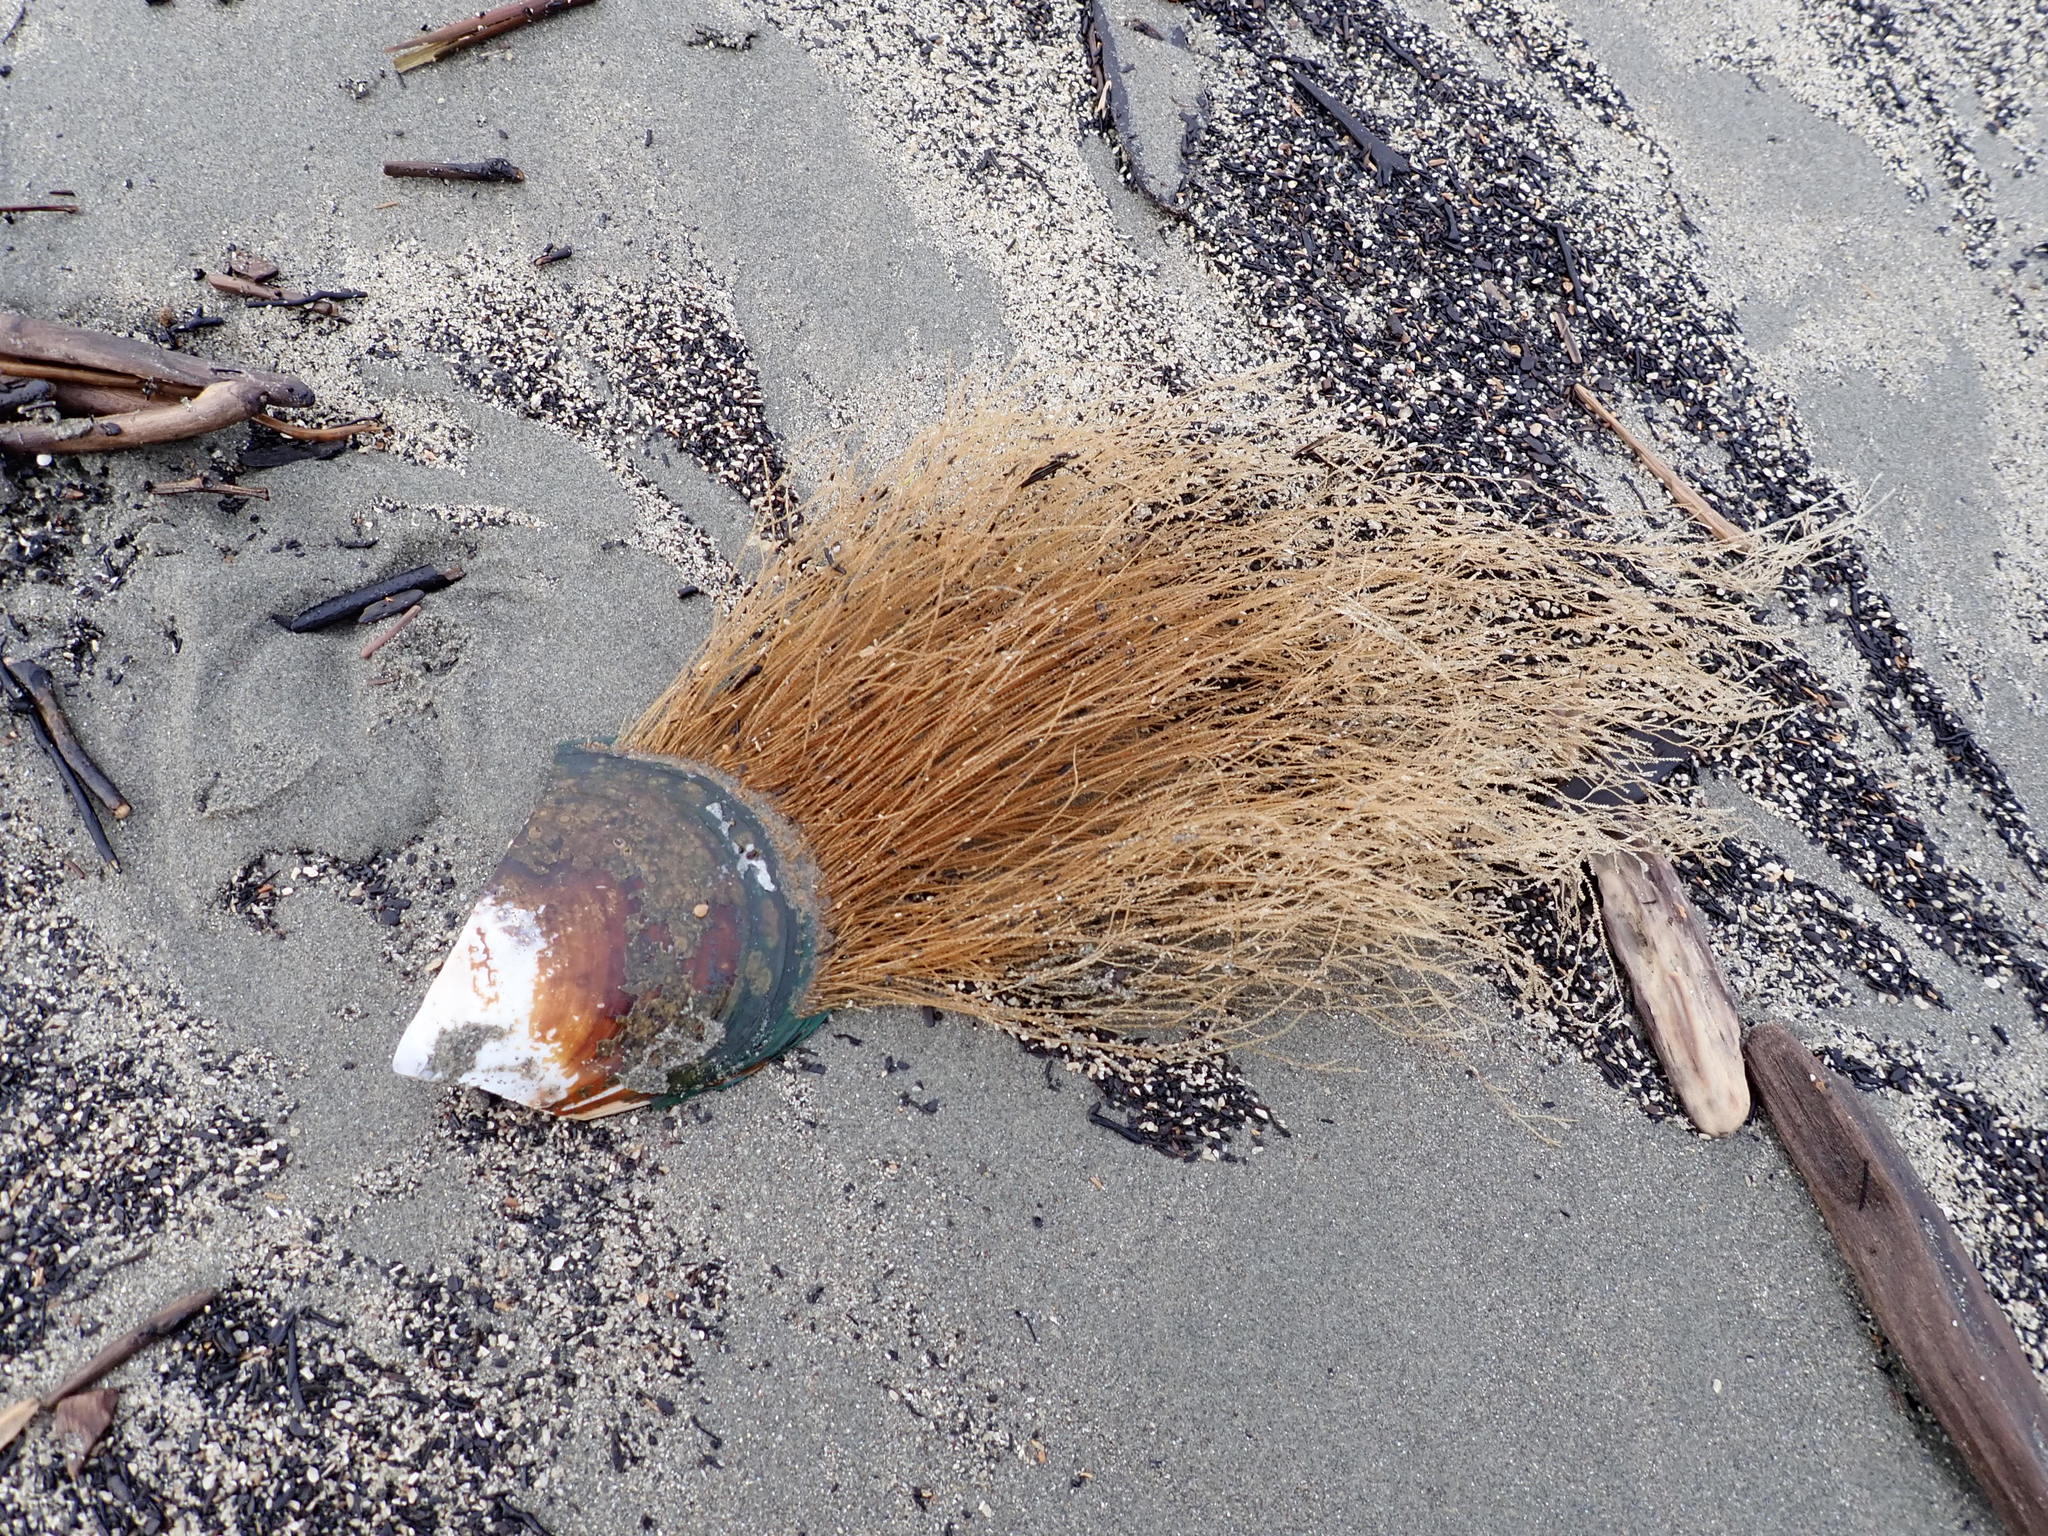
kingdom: Animalia
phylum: Cnidaria
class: Hydrozoa
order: Leptothecata
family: Sertulariidae
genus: Amphisbetia
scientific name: Amphisbetia bispinosa
